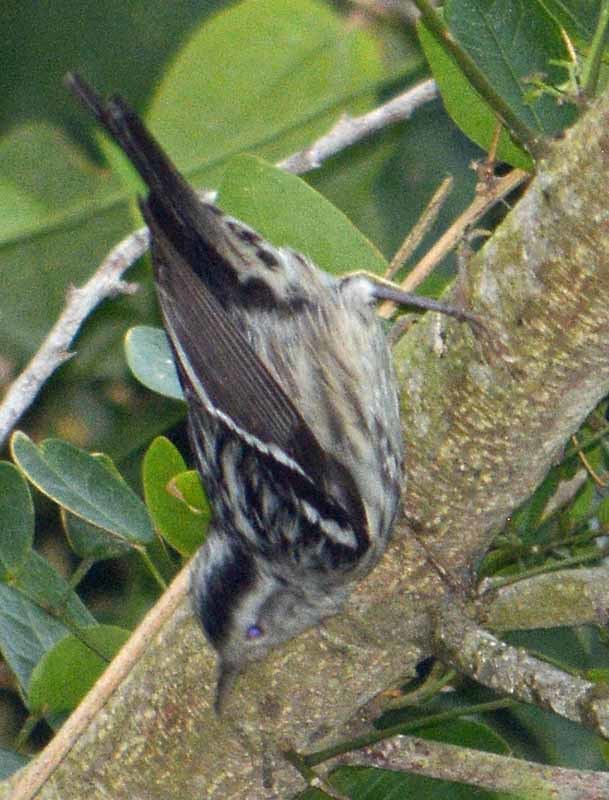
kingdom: Animalia
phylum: Chordata
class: Aves
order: Passeriformes
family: Parulidae
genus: Mniotilta
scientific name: Mniotilta varia
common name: Black-and-white warbler
